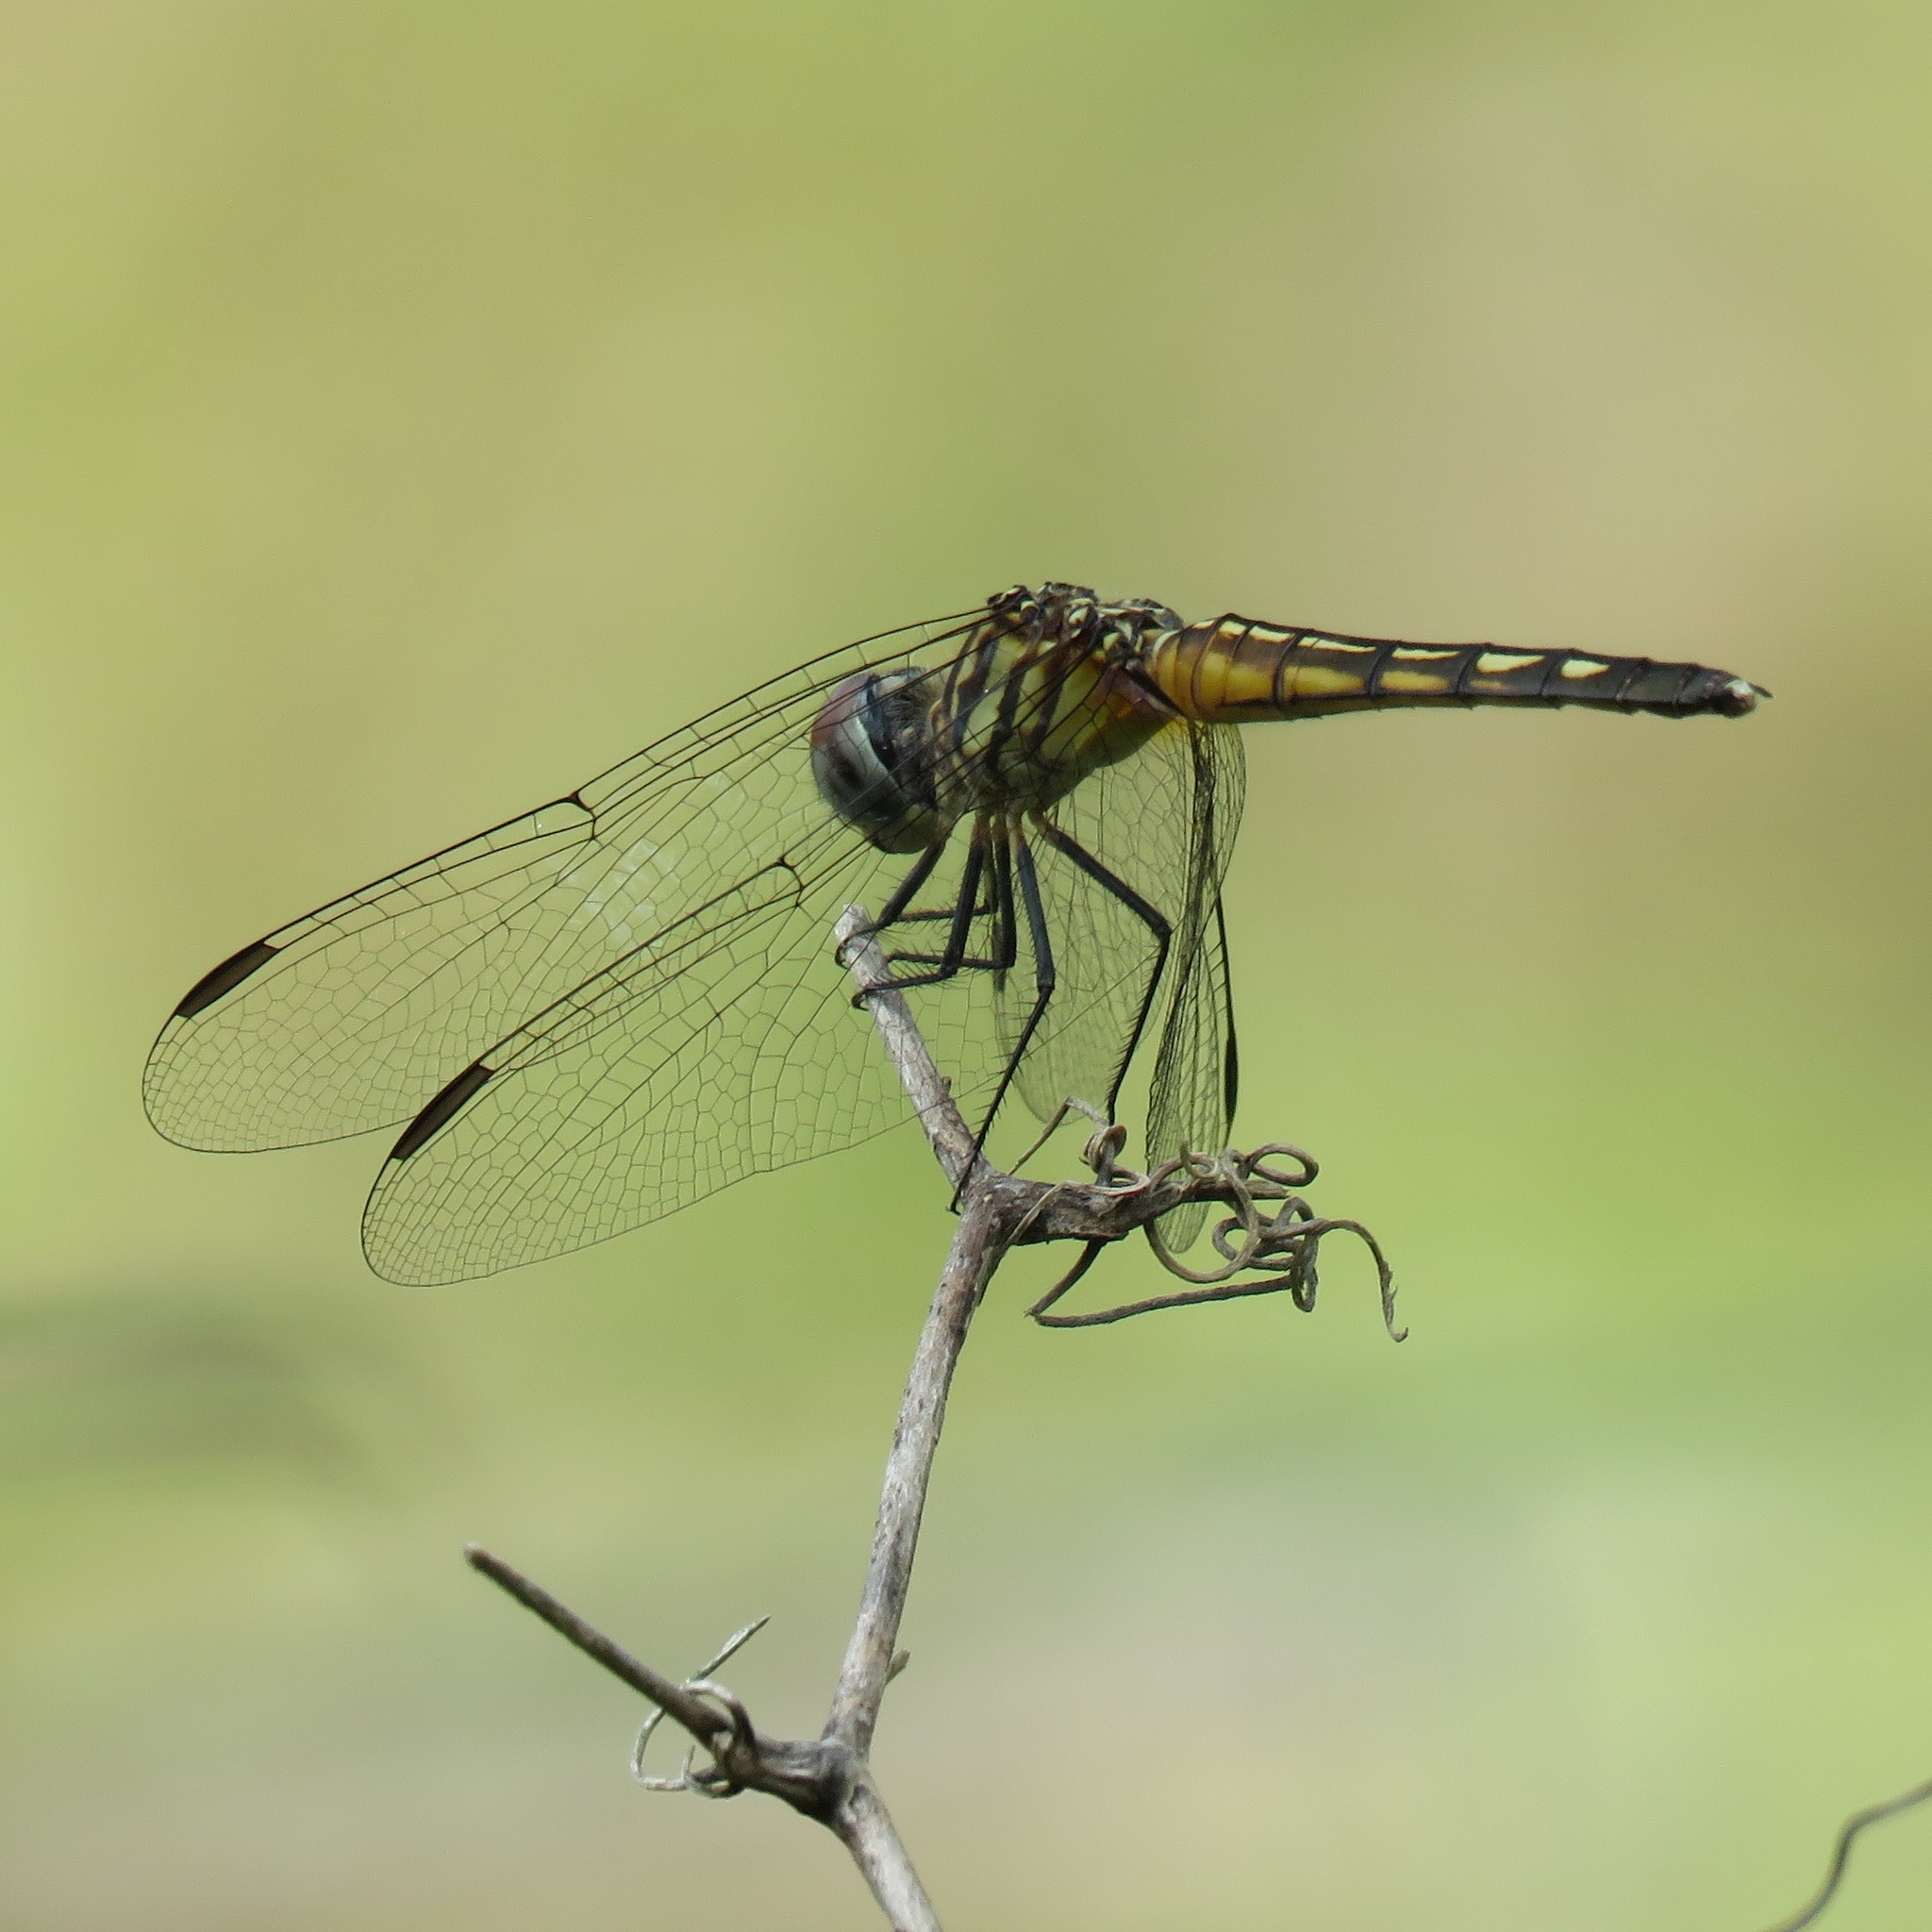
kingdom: Animalia
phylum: Arthropoda
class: Insecta
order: Odonata
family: Libellulidae
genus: Pachydiplax
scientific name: Pachydiplax longipennis
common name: Blue dasher
